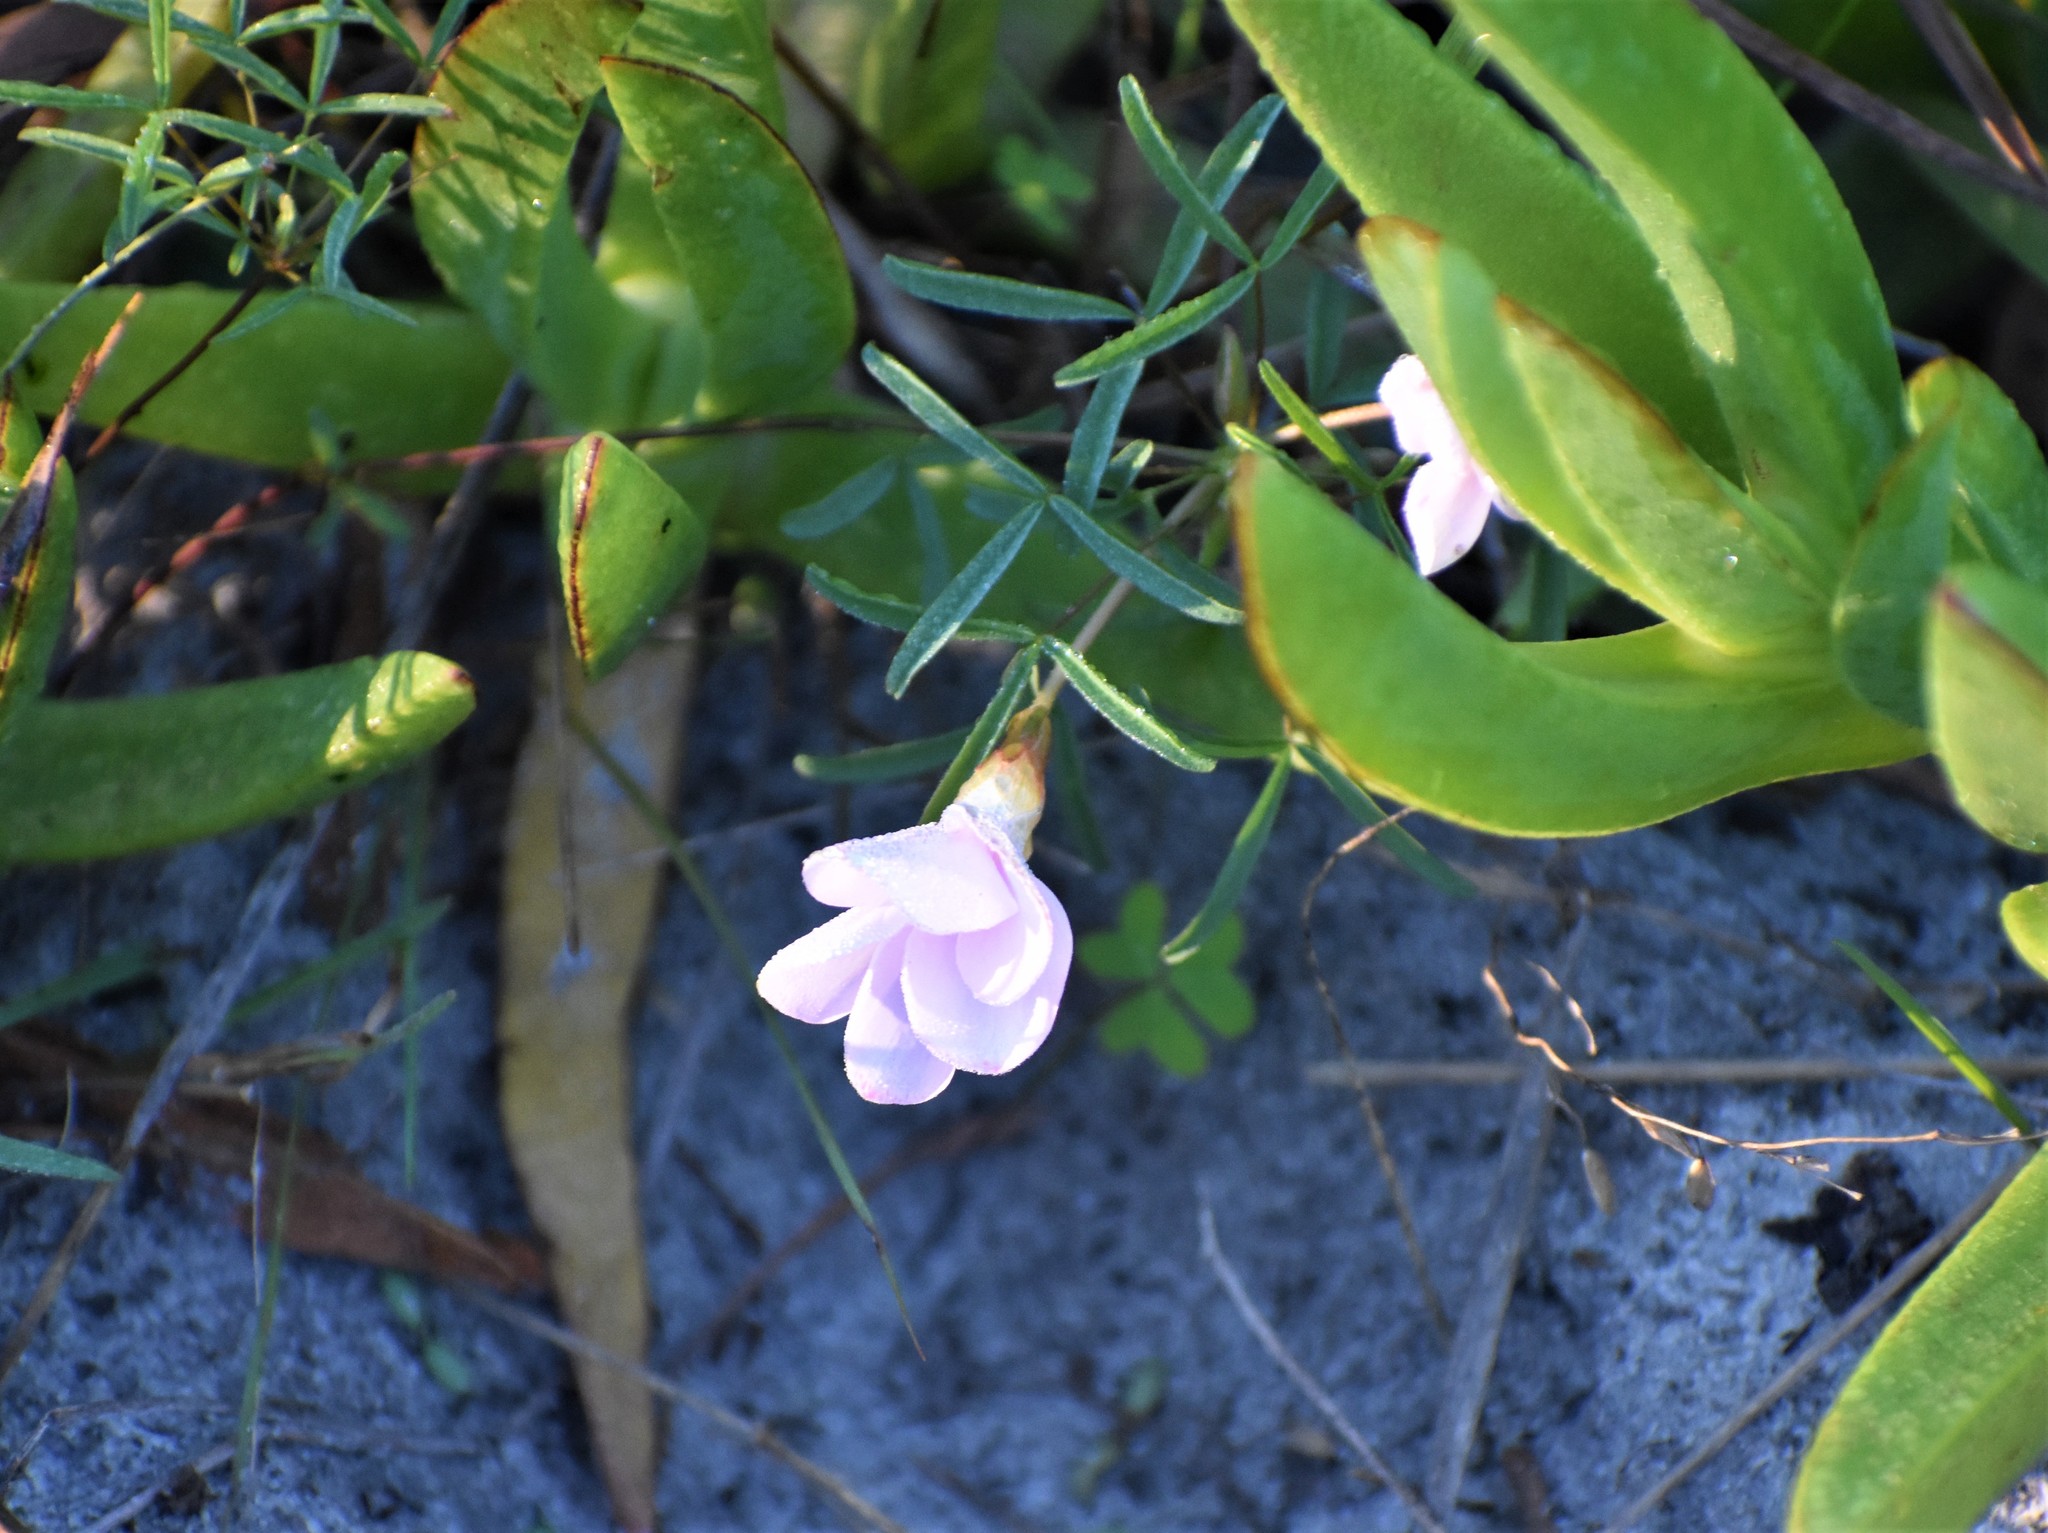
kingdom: Plantae
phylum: Tracheophyta
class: Magnoliopsida
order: Oxalidales
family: Oxalidaceae
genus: Oxalis
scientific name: Oxalis ciliaris
